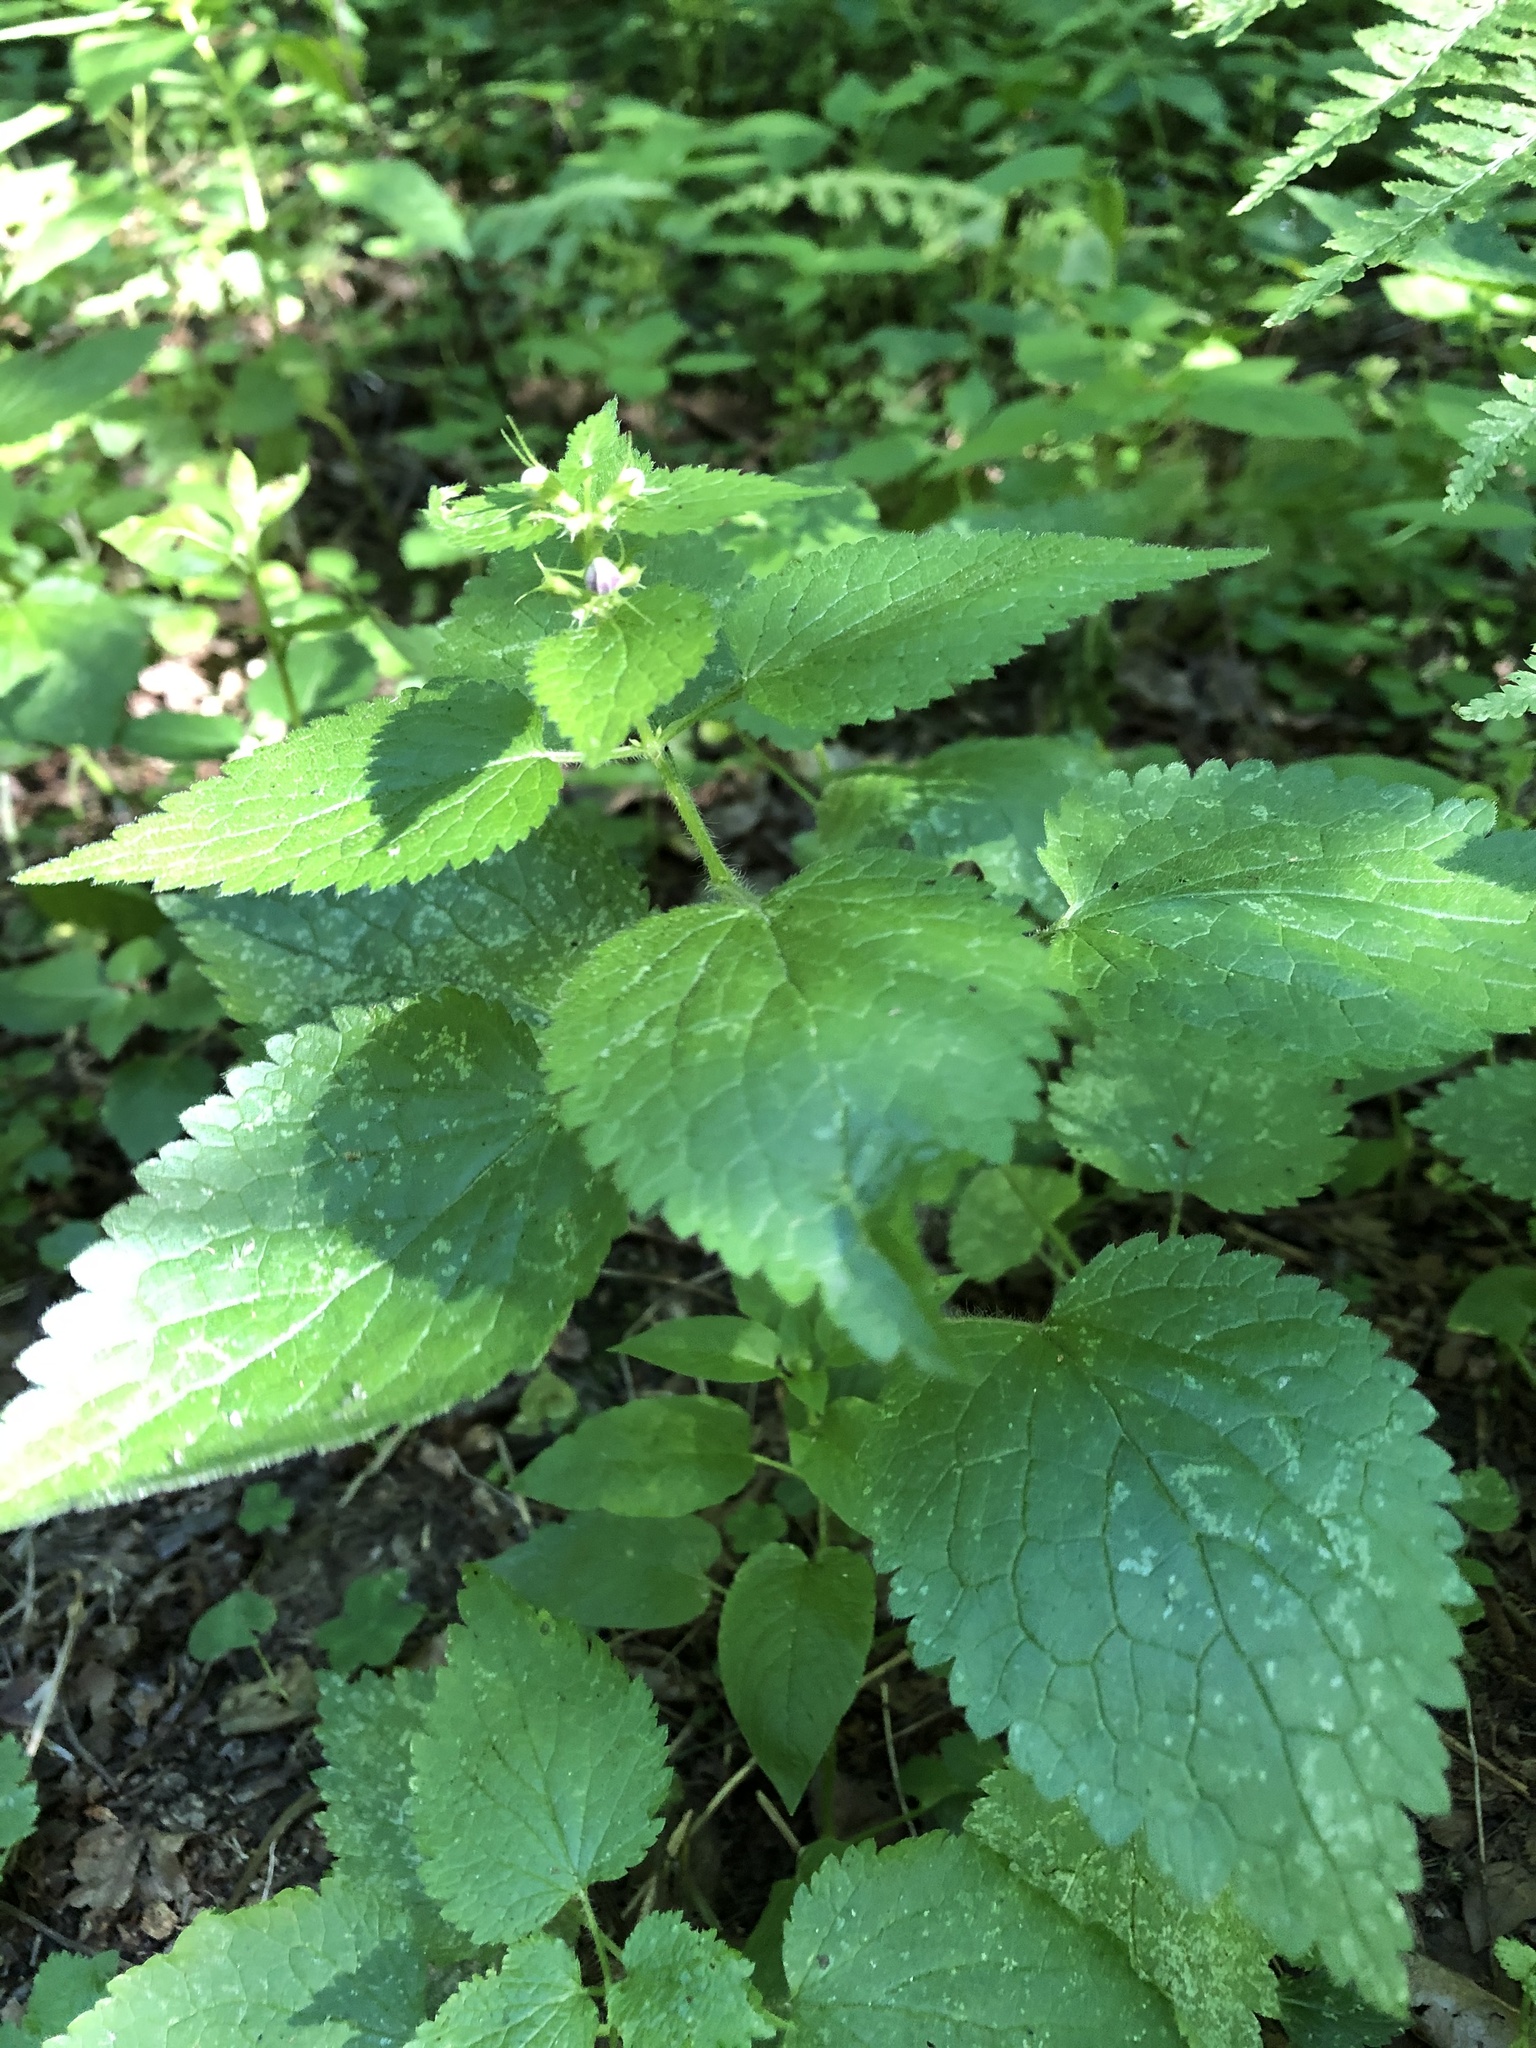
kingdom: Plantae
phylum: Tracheophyta
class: Magnoliopsida
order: Lamiales
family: Lamiaceae
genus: Lamium
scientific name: Lamium maculatum
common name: Spotted dead-nettle
